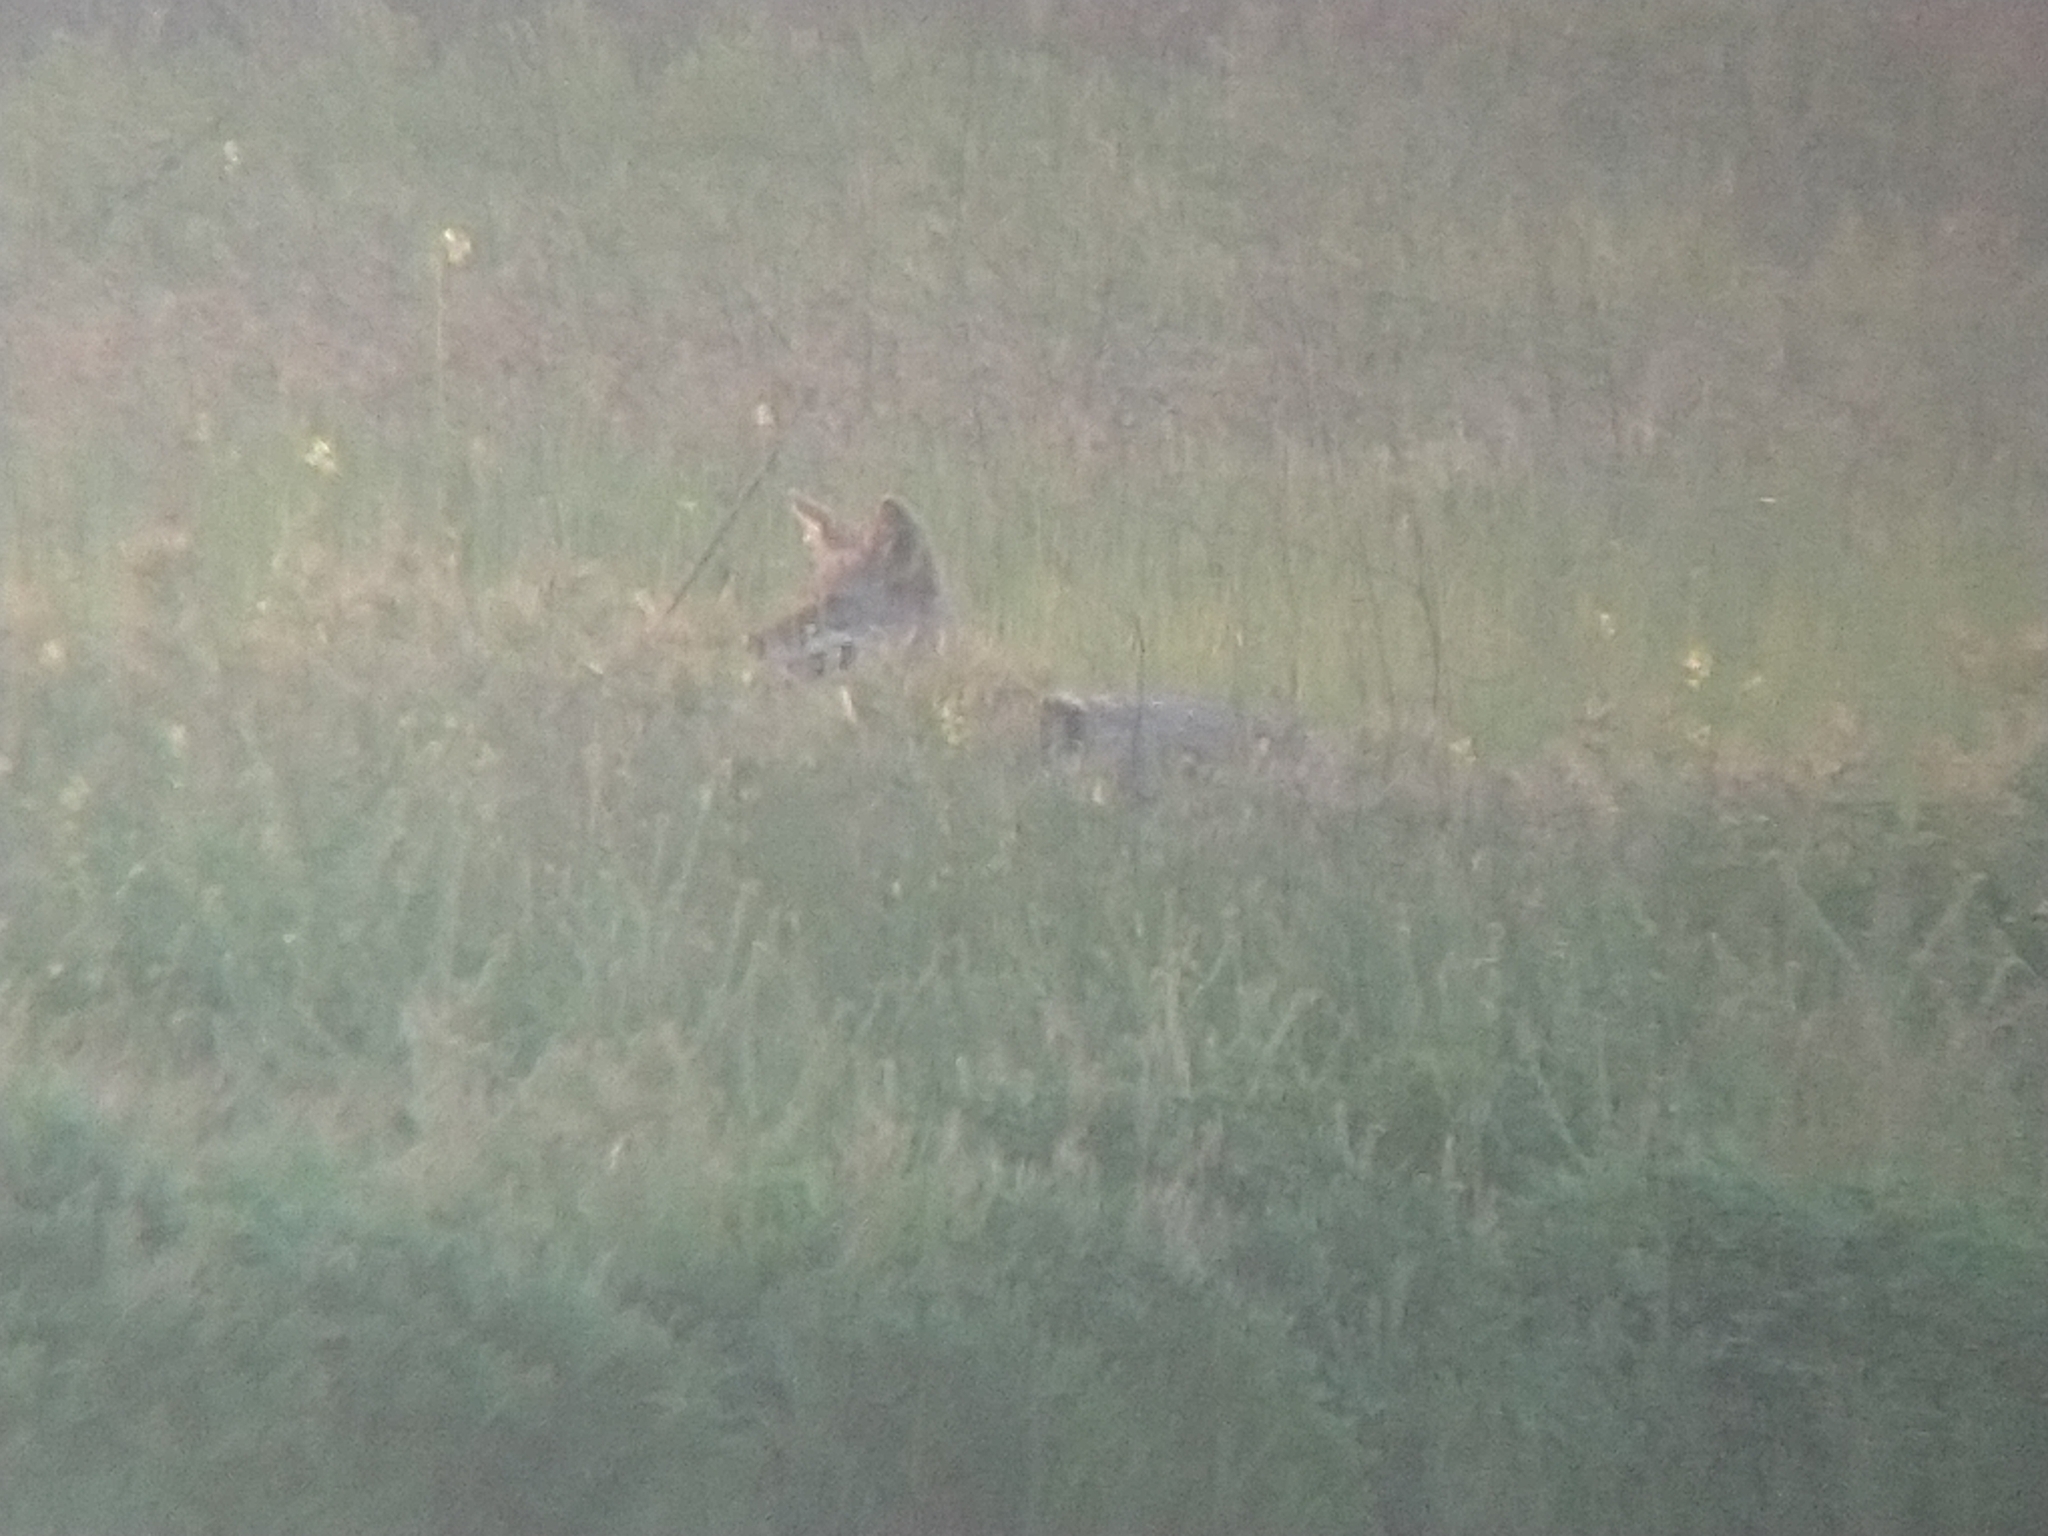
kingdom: Animalia
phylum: Chordata
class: Mammalia
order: Carnivora
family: Canidae
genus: Canis
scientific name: Canis latrans
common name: Coyote
